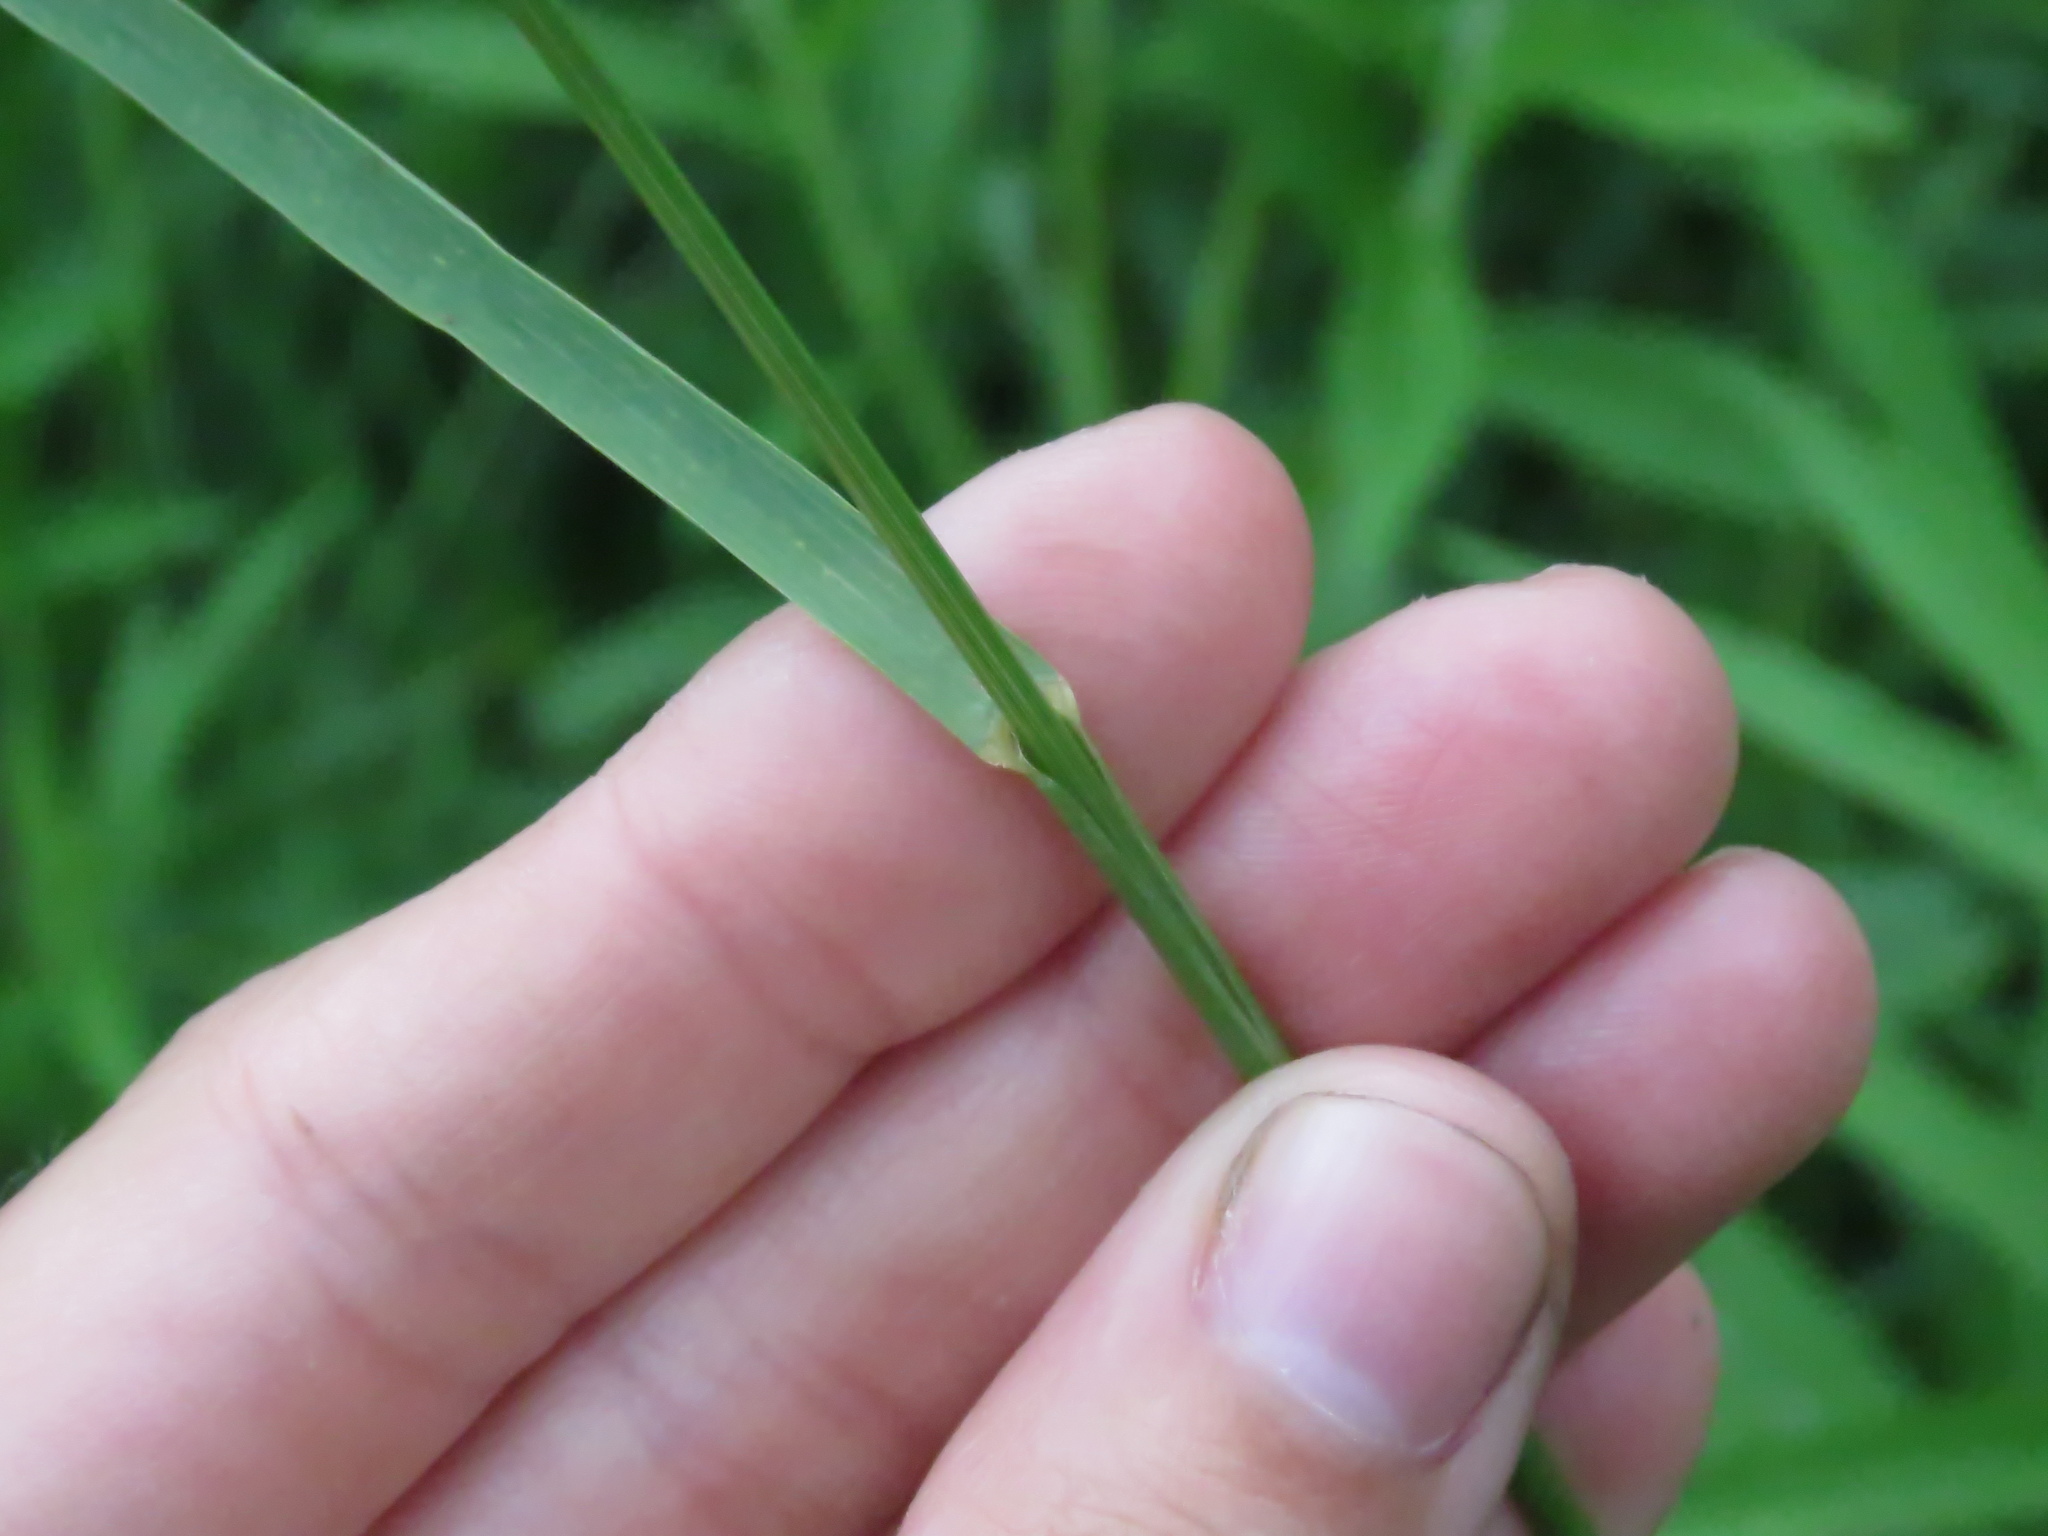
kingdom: Plantae
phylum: Tracheophyta
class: Liliopsida
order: Poales
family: Poaceae
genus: Bromus
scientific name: Bromus inermis
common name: Smooth brome
